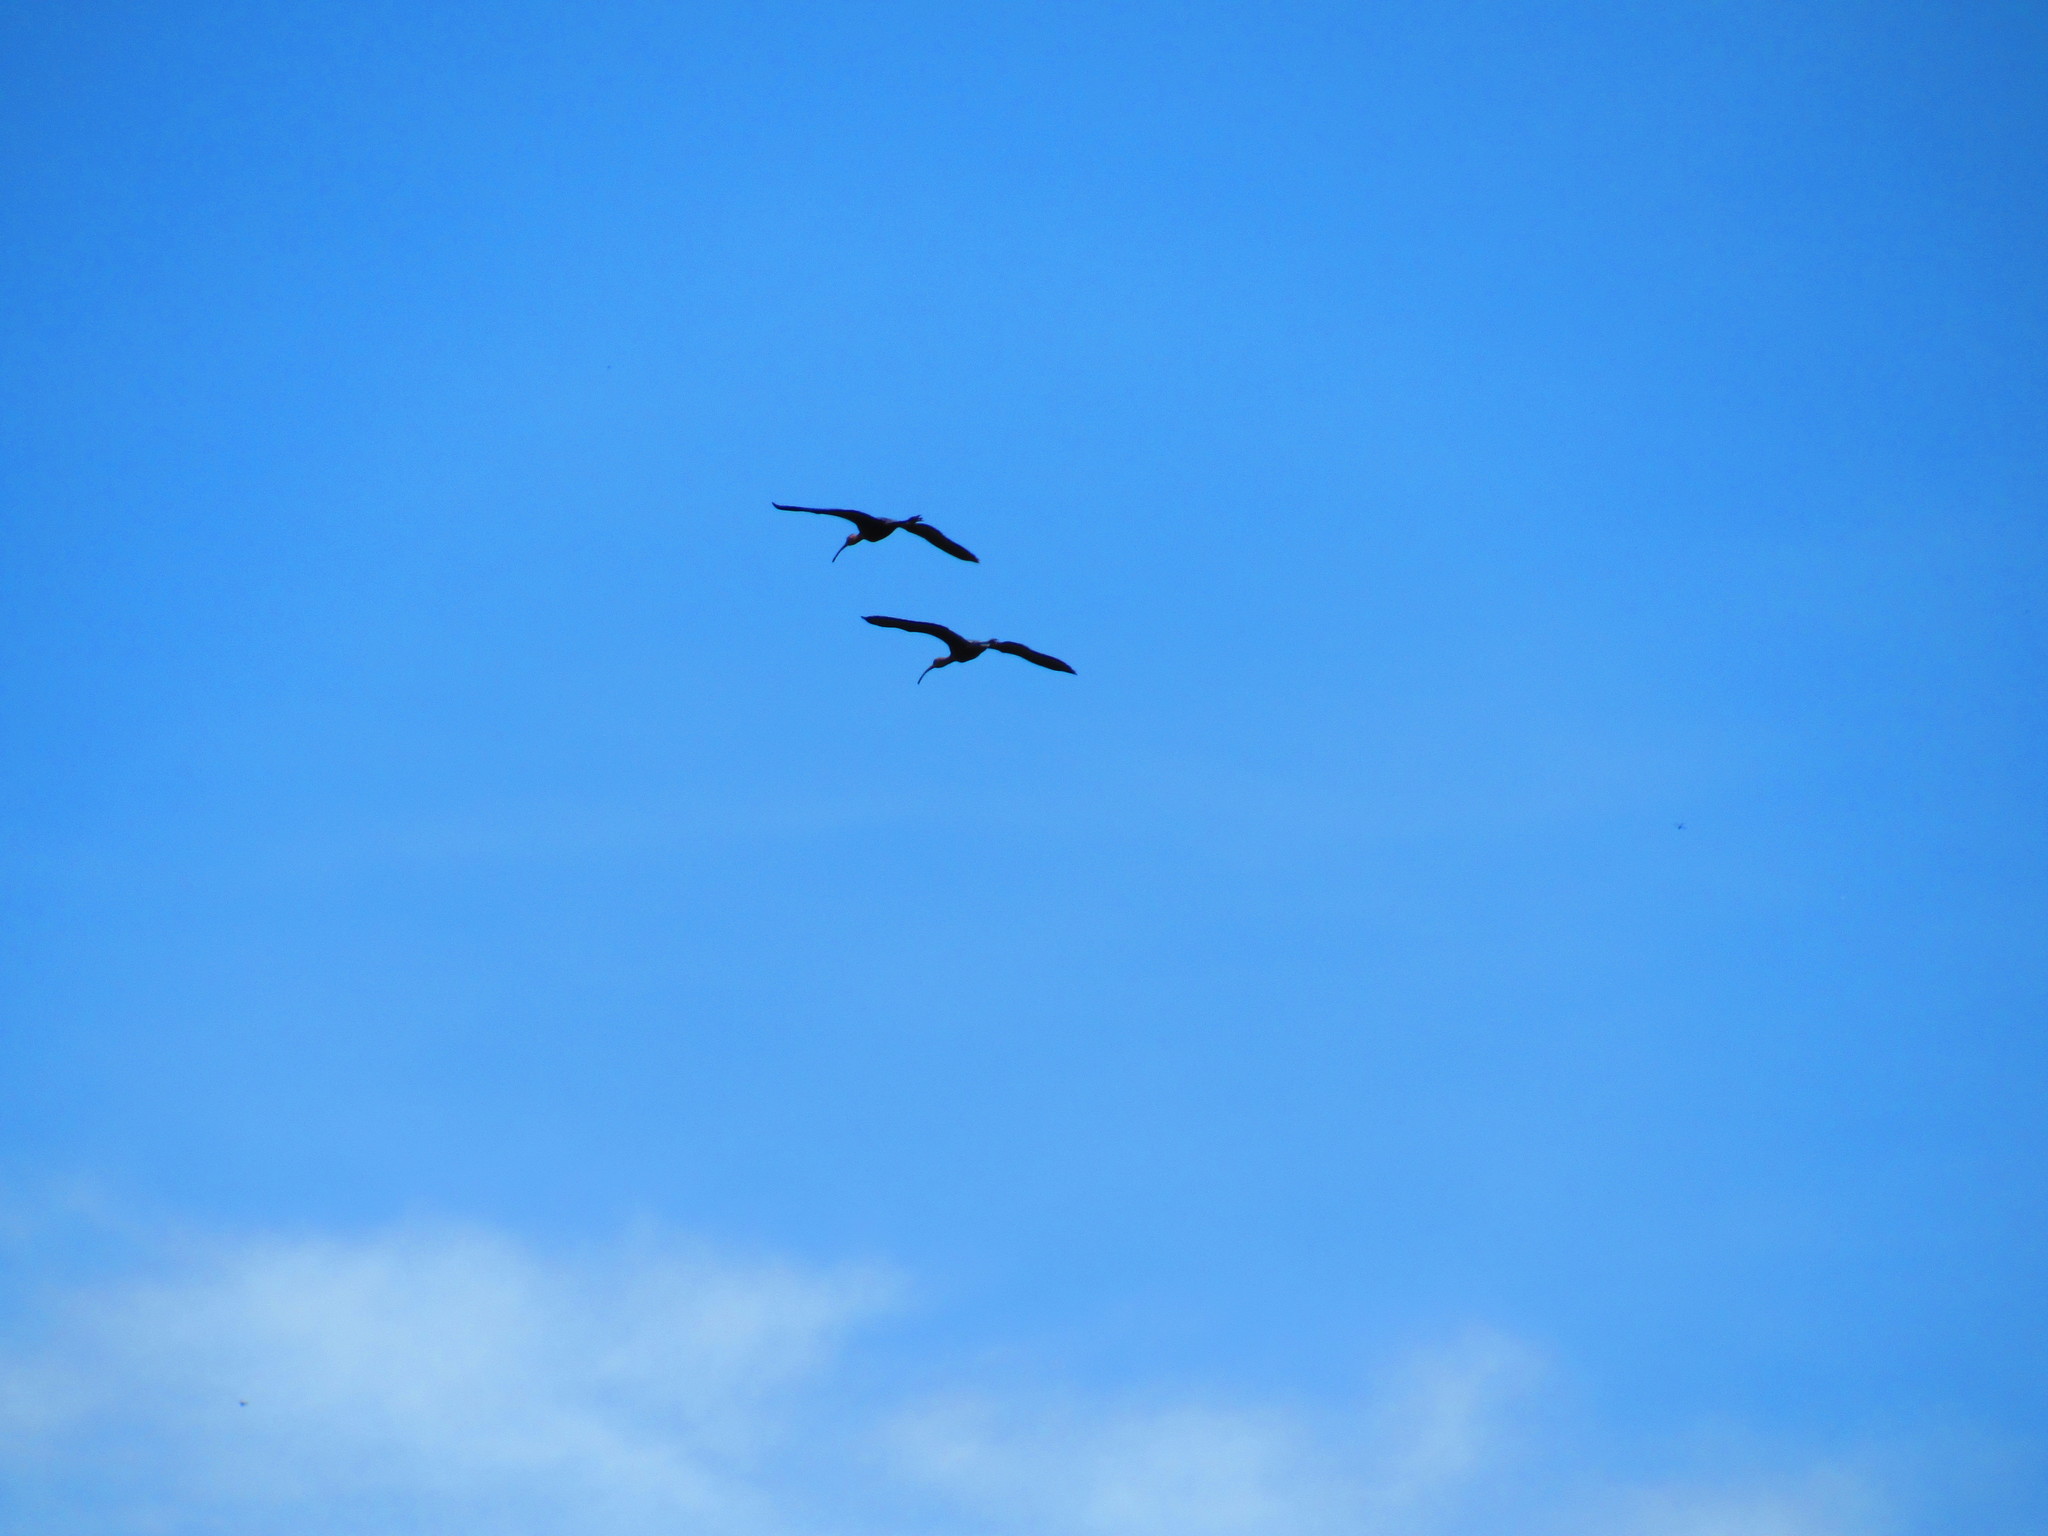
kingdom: Animalia
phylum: Chordata
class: Aves
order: Pelecaniformes
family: Threskiornithidae
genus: Plegadis
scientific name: Plegadis chihi
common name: White-faced ibis
